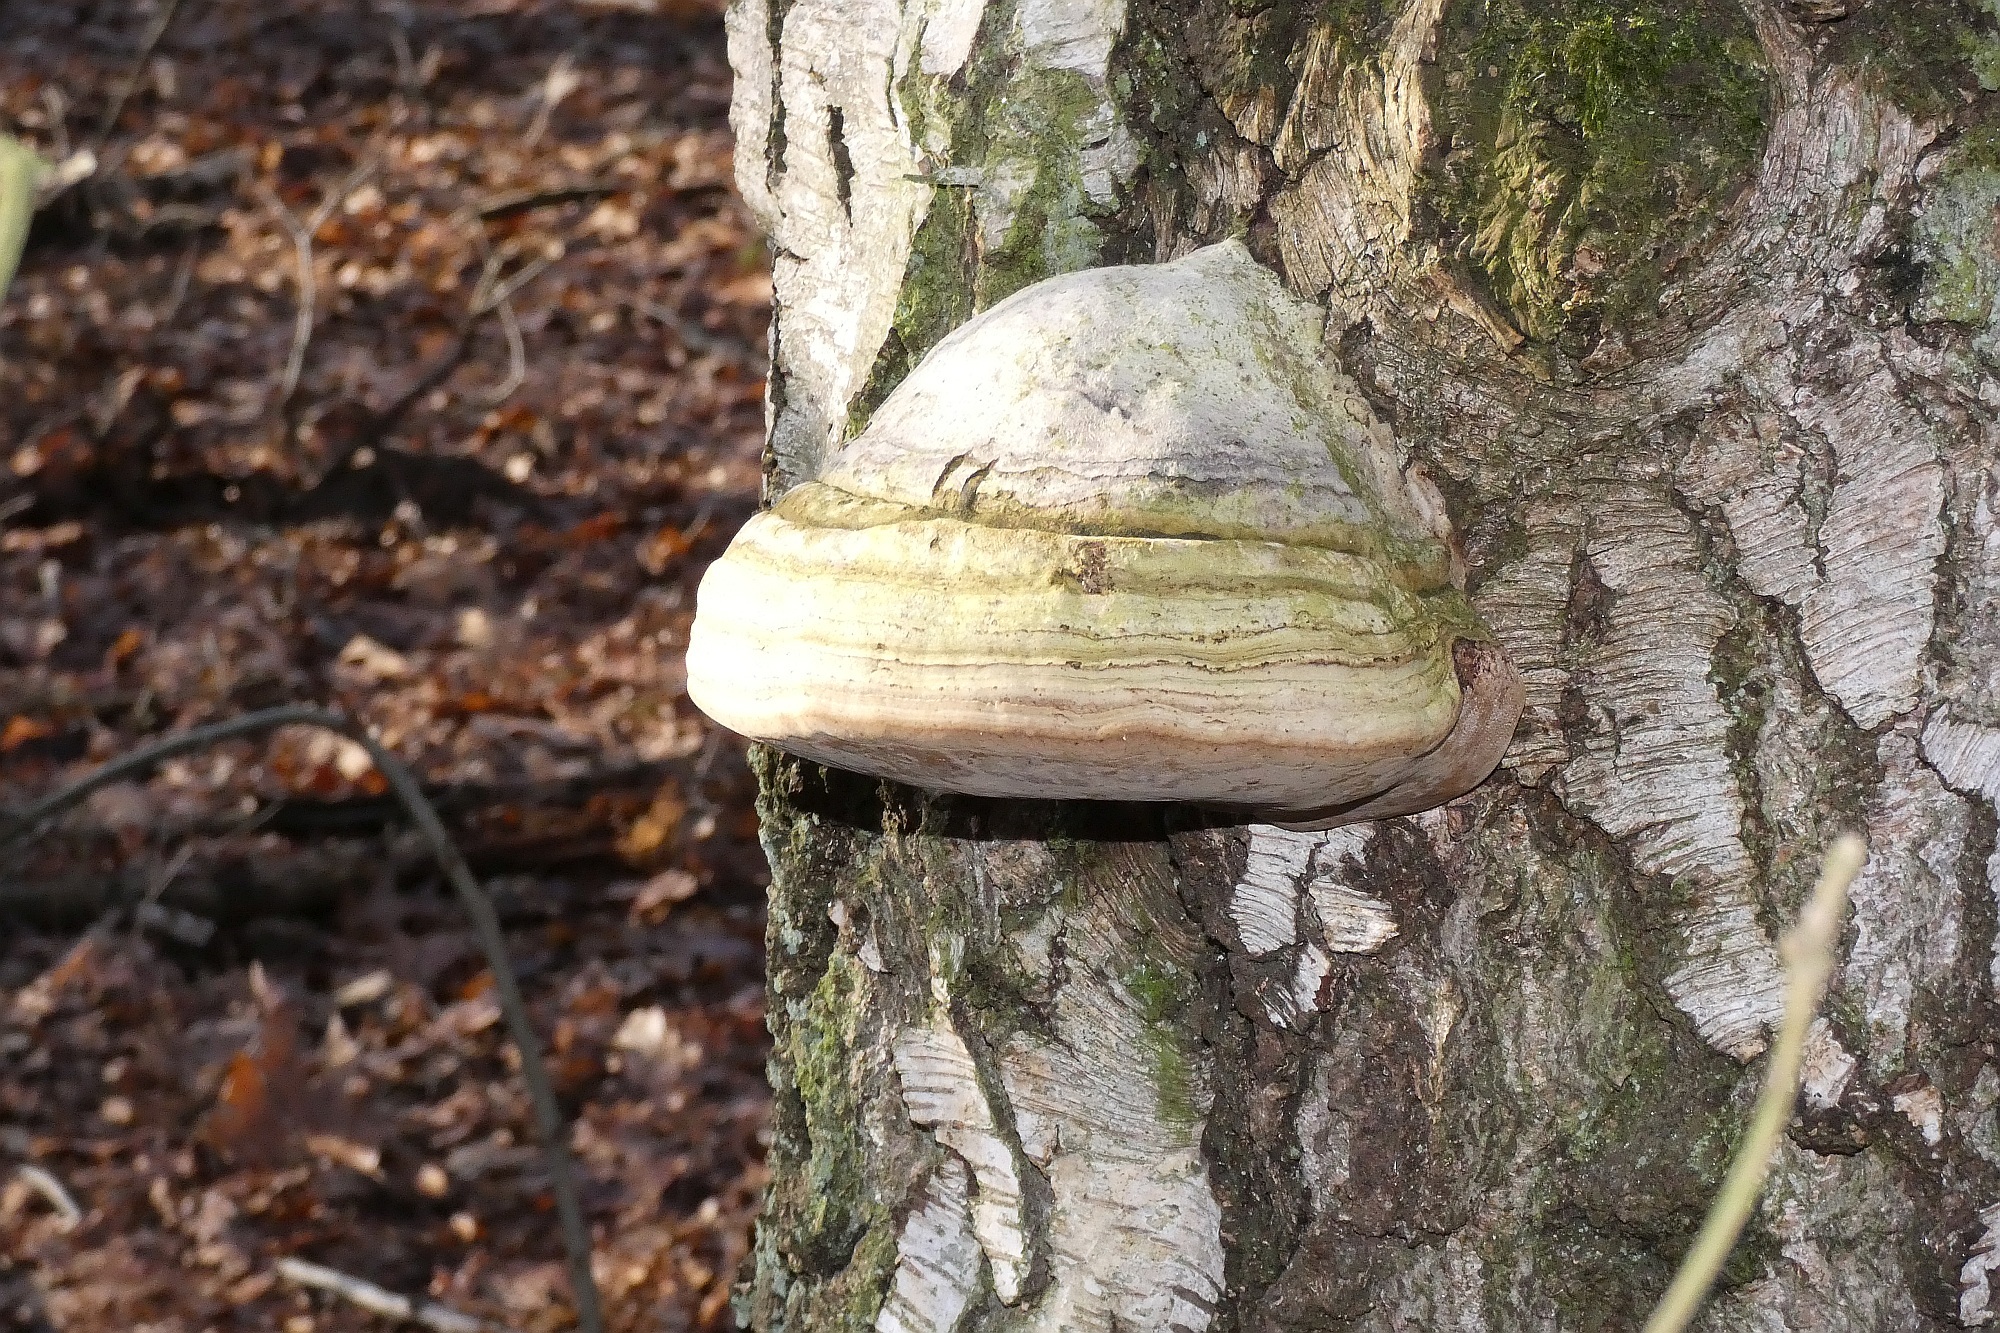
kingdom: Fungi
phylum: Basidiomycota
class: Agaricomycetes
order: Polyporales
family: Polyporaceae
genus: Fomes
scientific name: Fomes fomentarius
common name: Hoof fungus
